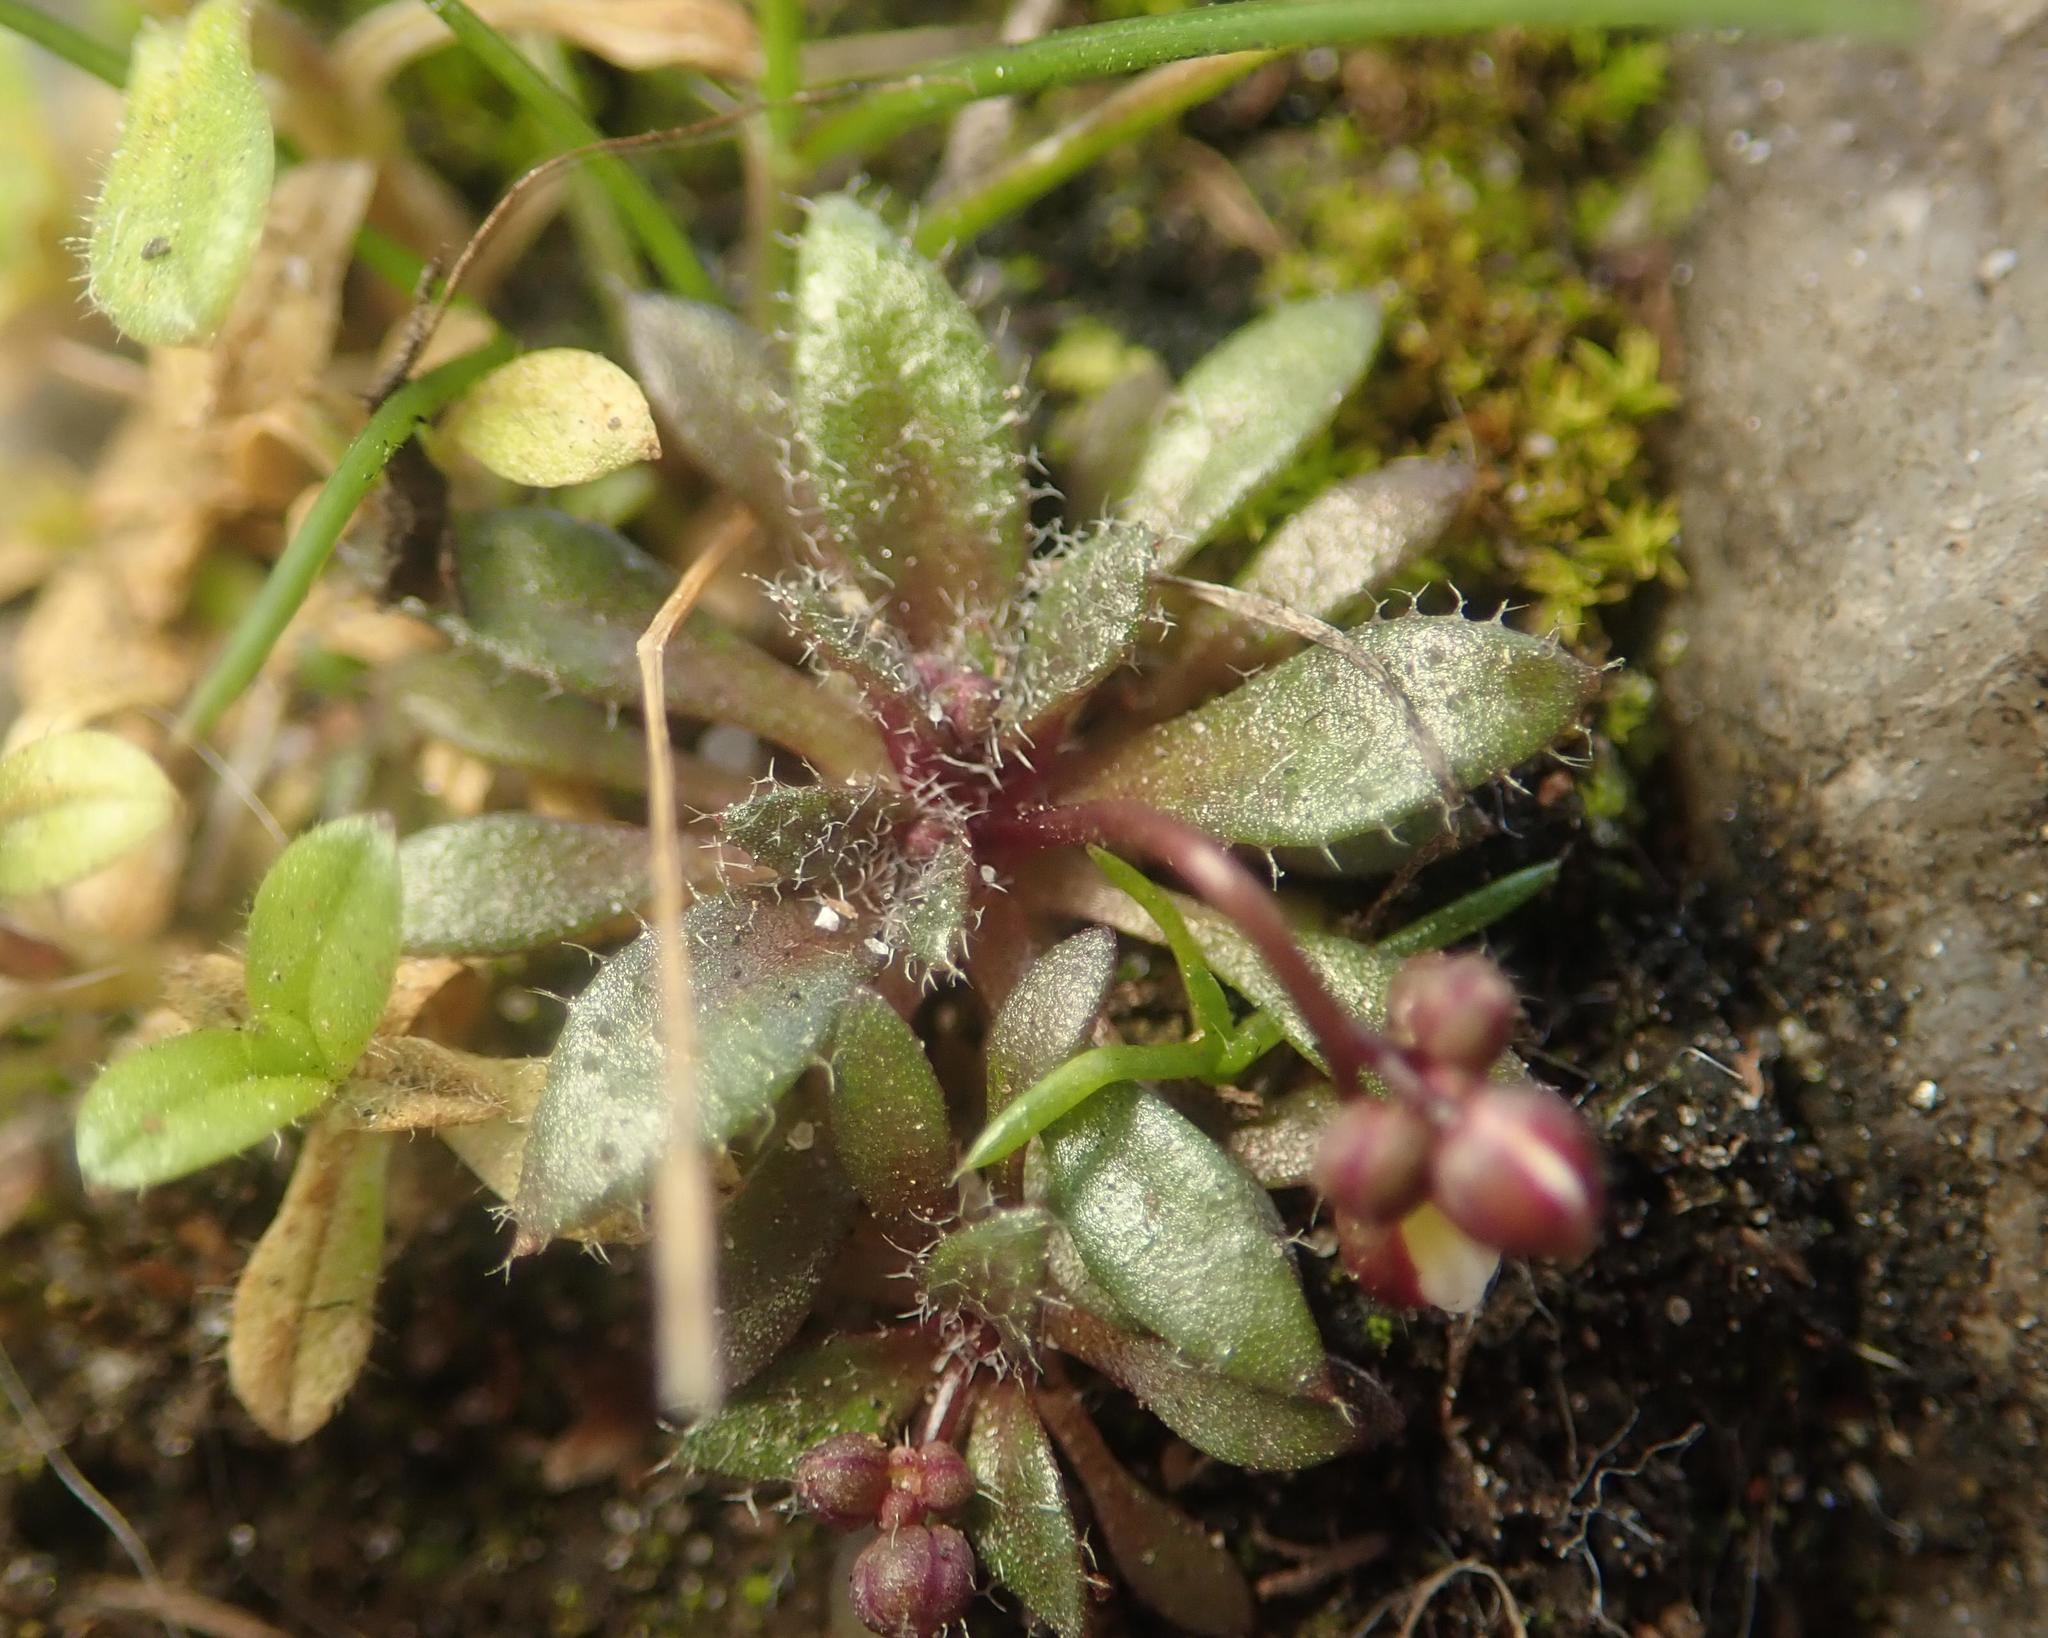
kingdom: Plantae
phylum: Tracheophyta
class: Magnoliopsida
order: Brassicales
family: Brassicaceae
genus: Draba
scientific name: Draba verna
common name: Spring draba
